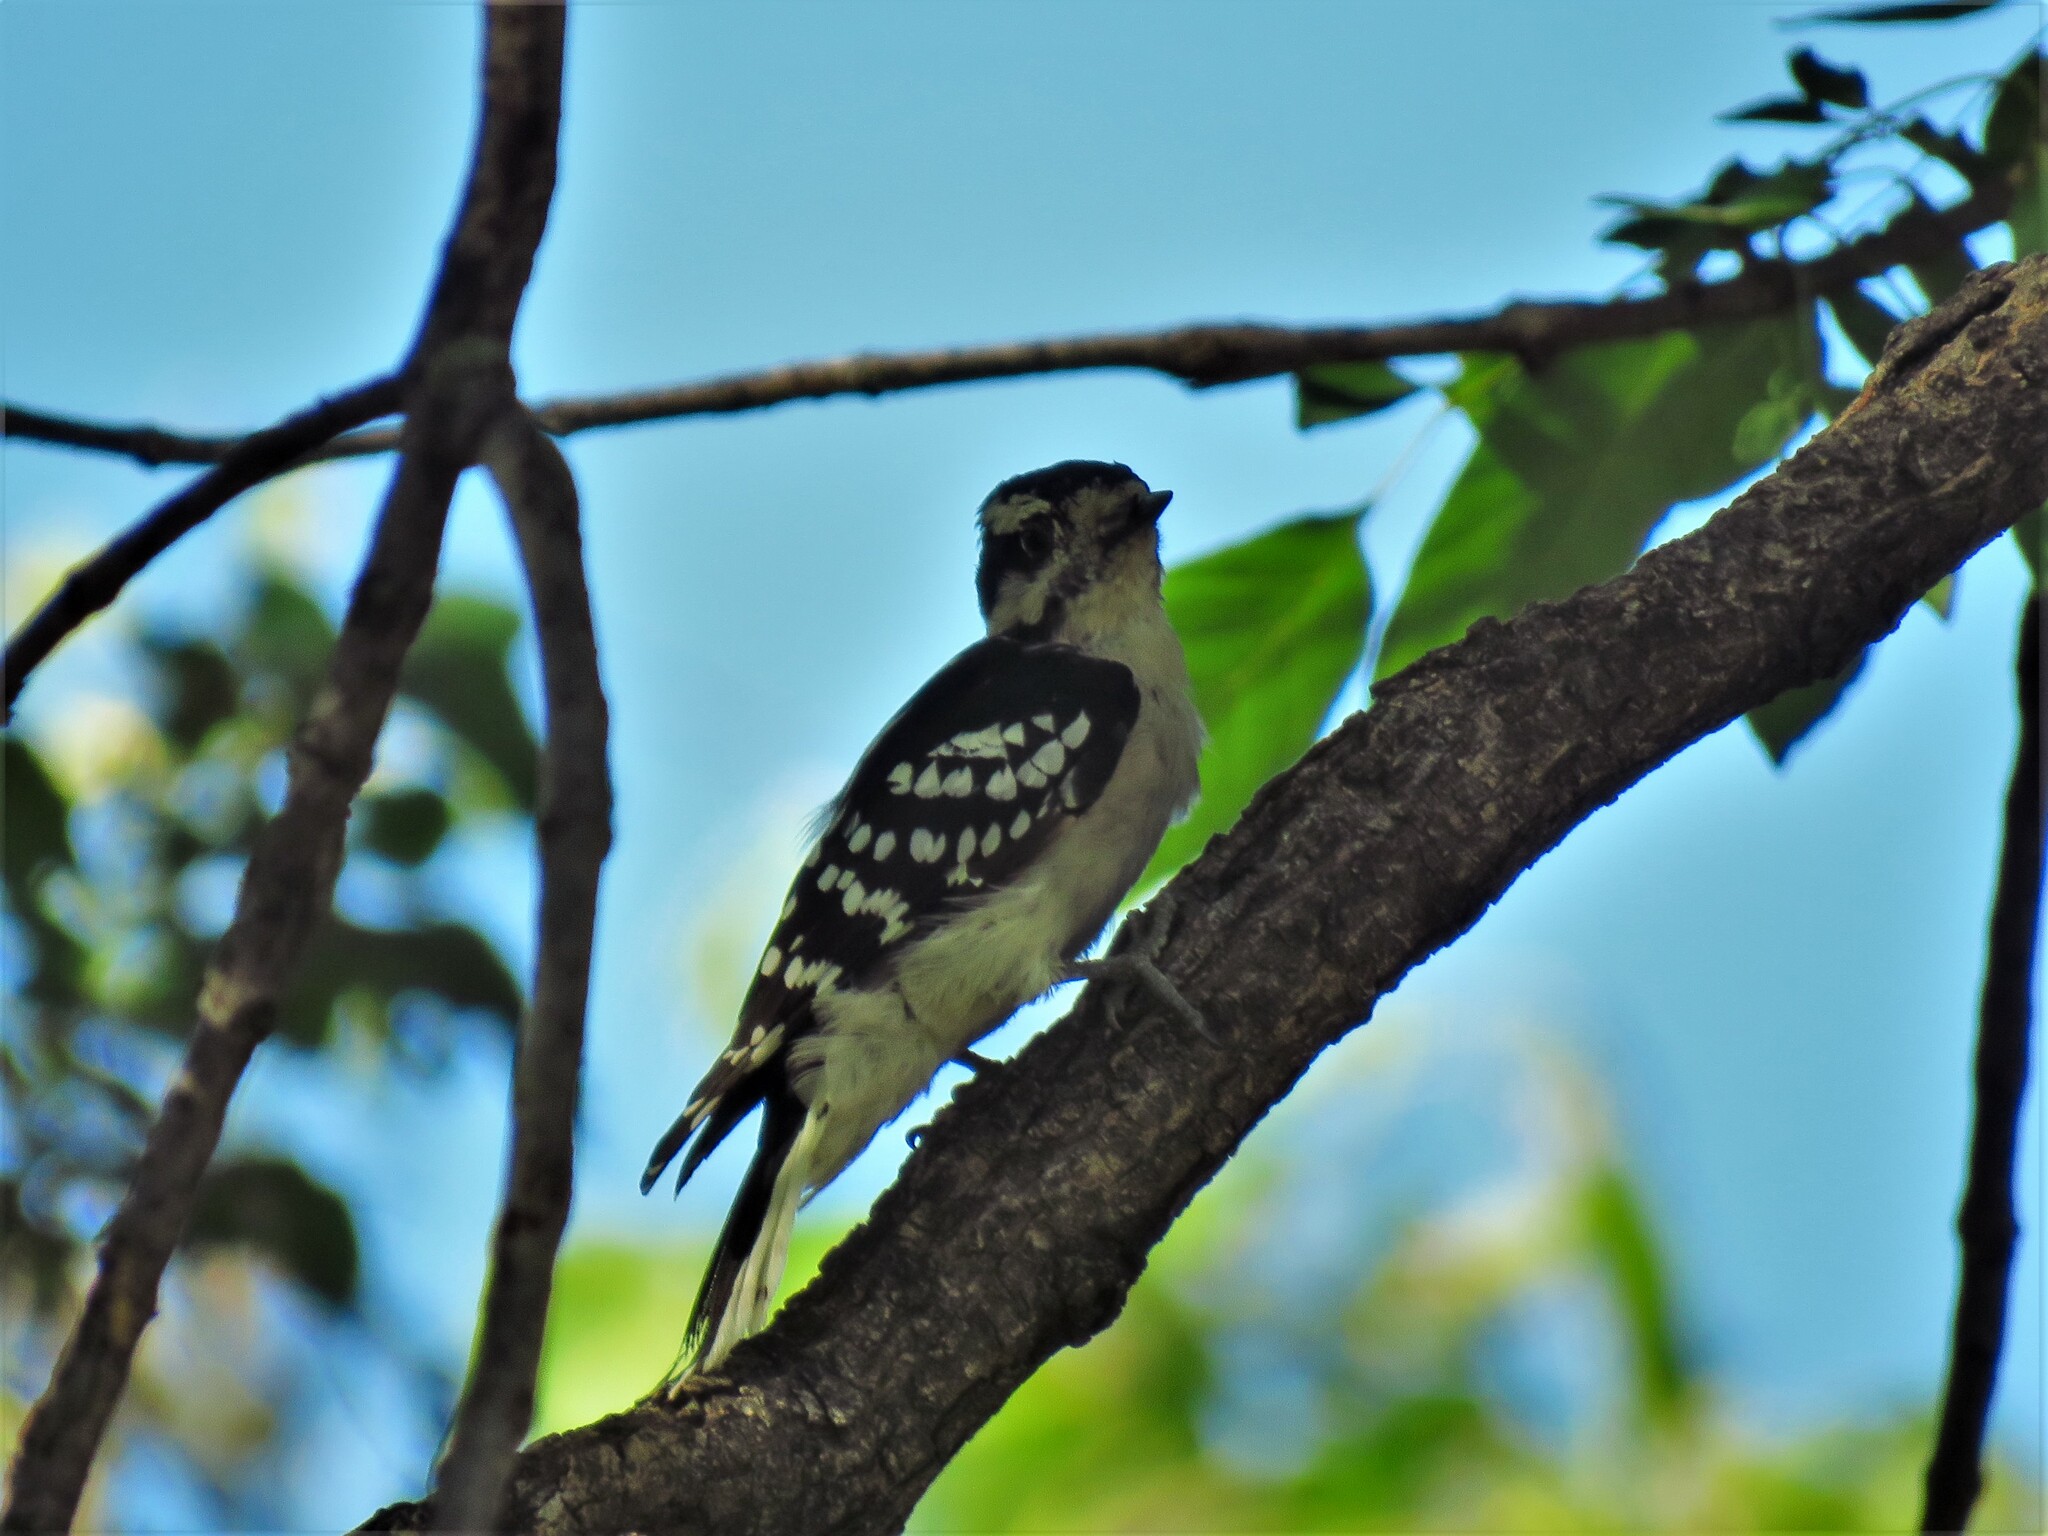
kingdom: Animalia
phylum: Chordata
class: Aves
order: Piciformes
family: Picidae
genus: Dryobates
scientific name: Dryobates pubescens
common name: Downy woodpecker
